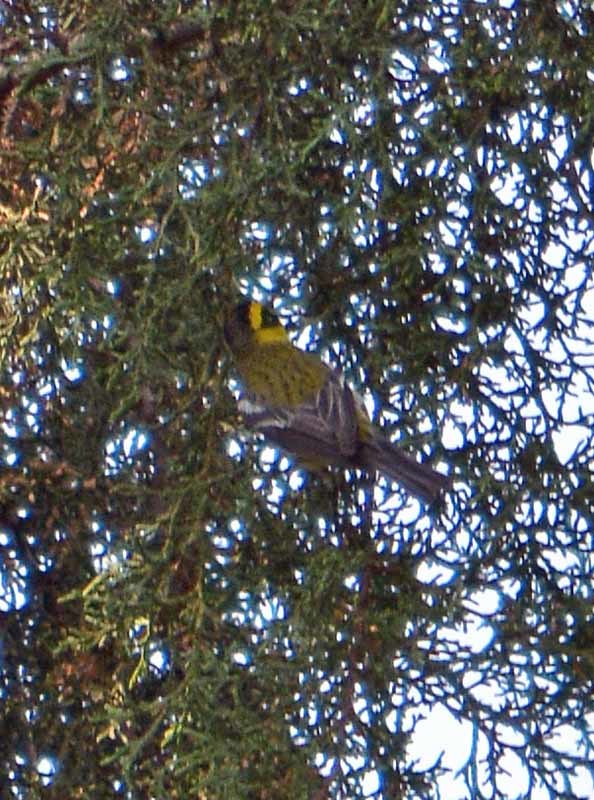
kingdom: Animalia
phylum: Chordata
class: Aves
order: Passeriformes
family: Parulidae
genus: Setophaga
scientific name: Setophaga townsendi
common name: Townsend's warbler
